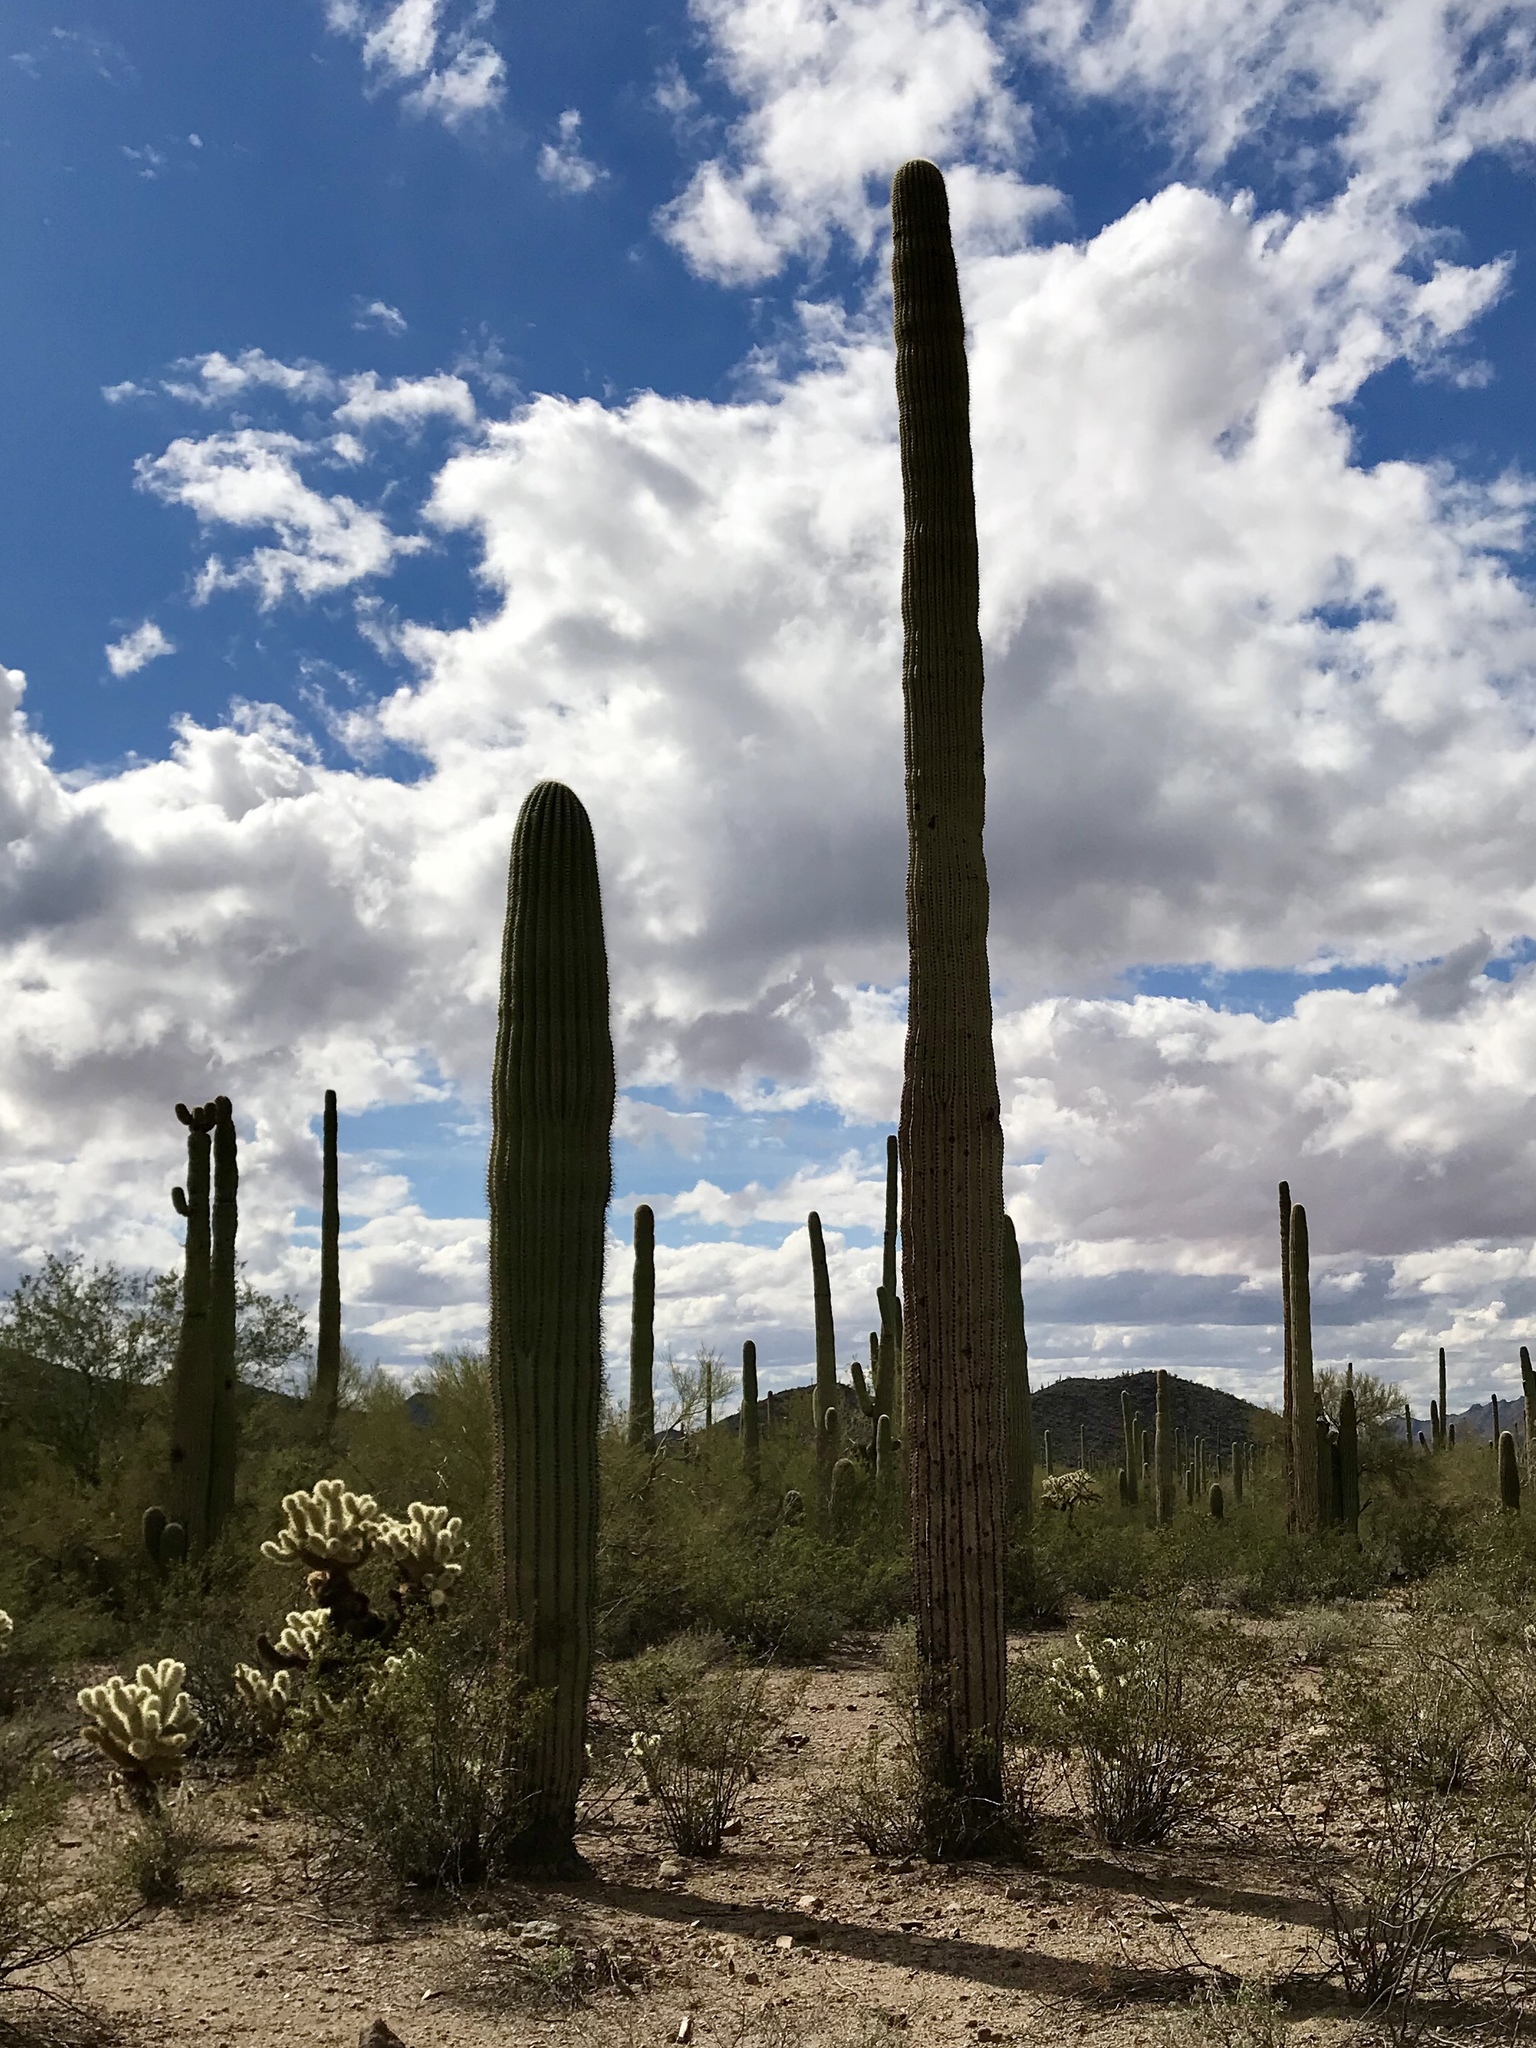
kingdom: Plantae
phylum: Tracheophyta
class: Magnoliopsida
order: Caryophyllales
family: Cactaceae
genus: Carnegiea
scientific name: Carnegiea gigantea
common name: Saguaro
